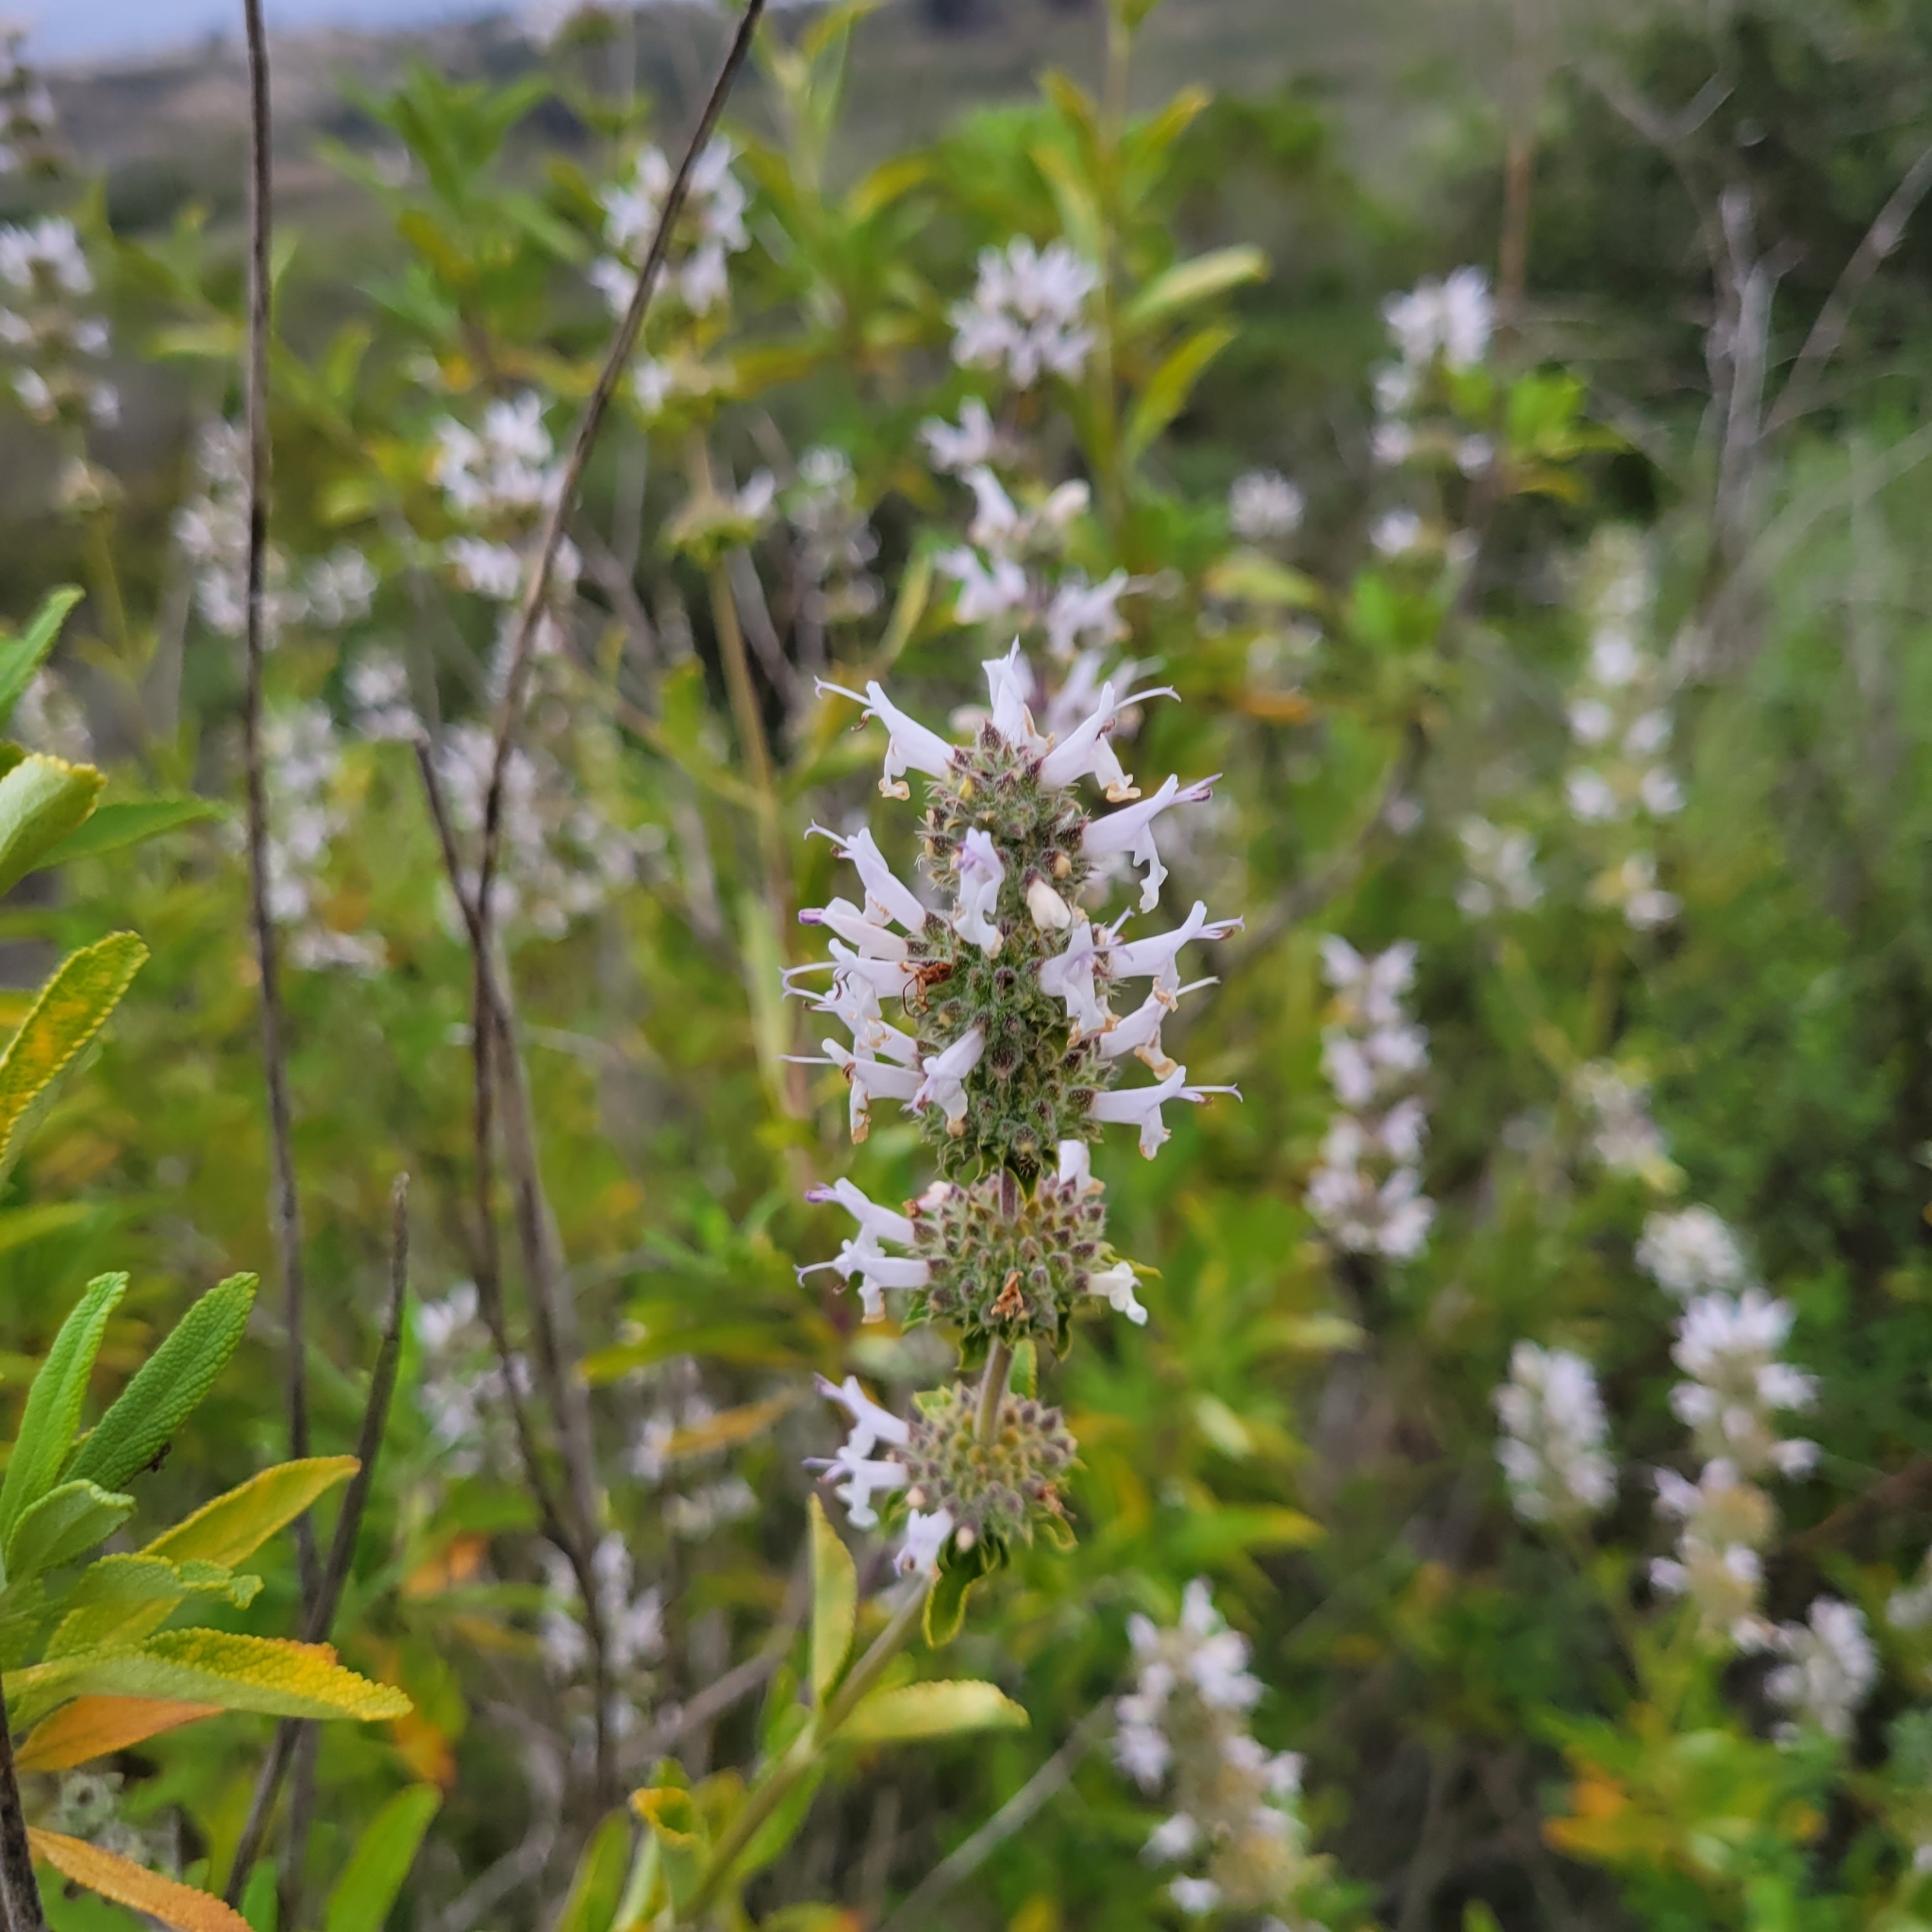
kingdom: Plantae
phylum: Tracheophyta
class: Magnoliopsida
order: Lamiales
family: Lamiaceae
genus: Salvia
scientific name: Salvia mellifera
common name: Black sage
